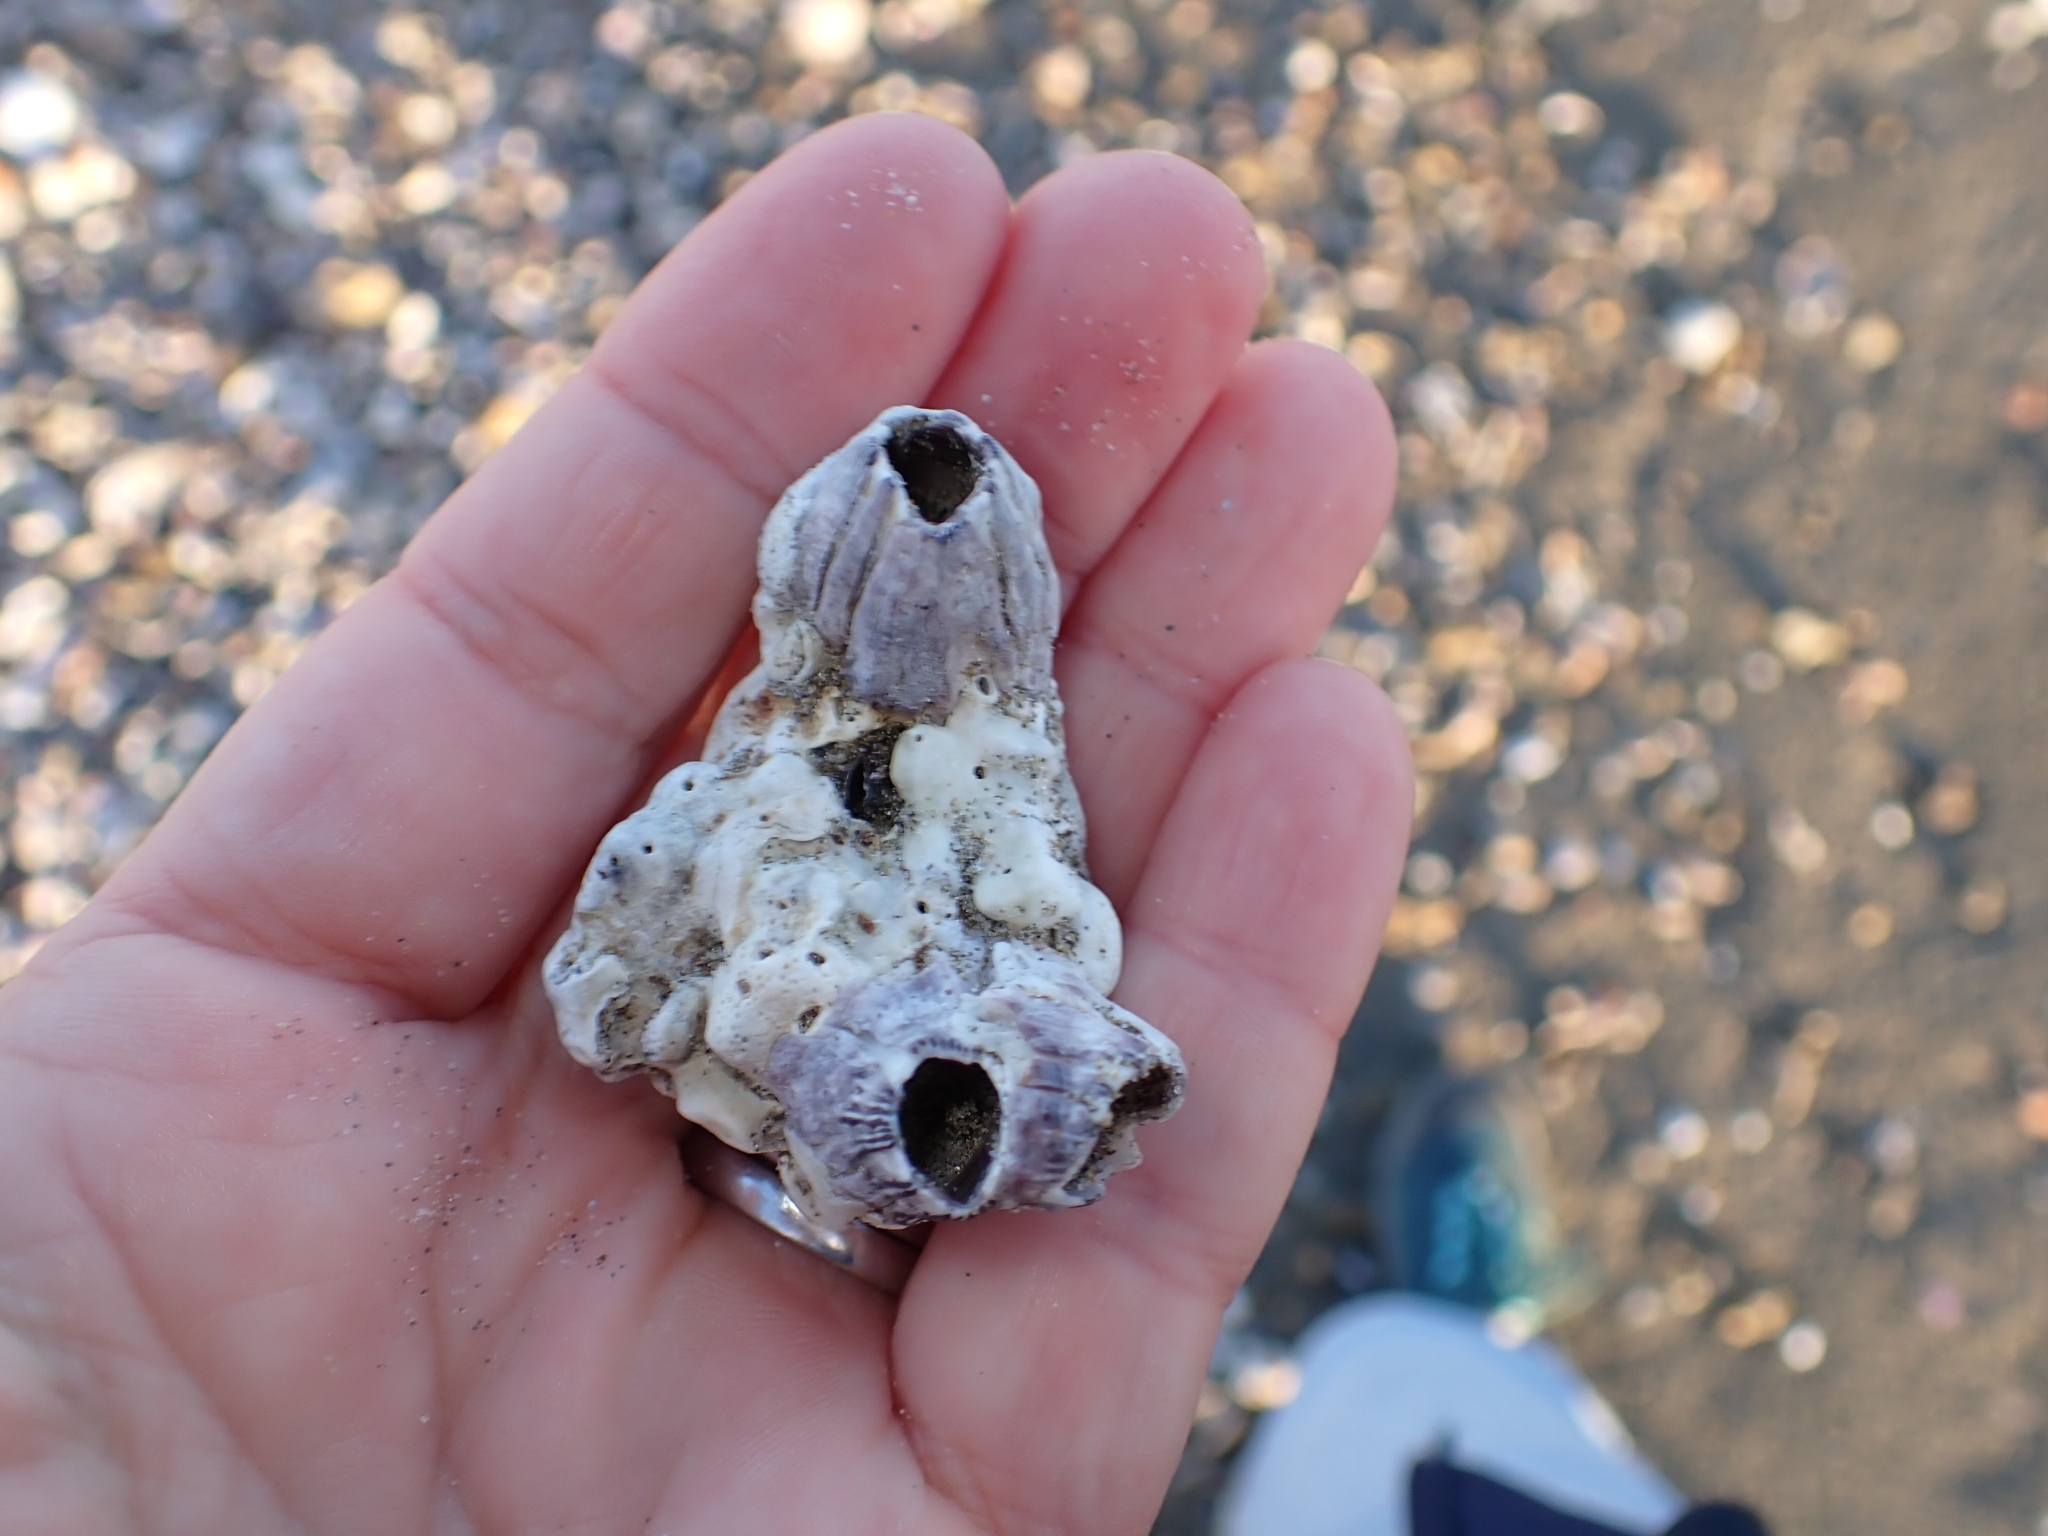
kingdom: Animalia
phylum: Arthropoda
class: Maxillopoda
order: Sessilia
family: Balanidae
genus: Perforatus
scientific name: Perforatus perforatus
